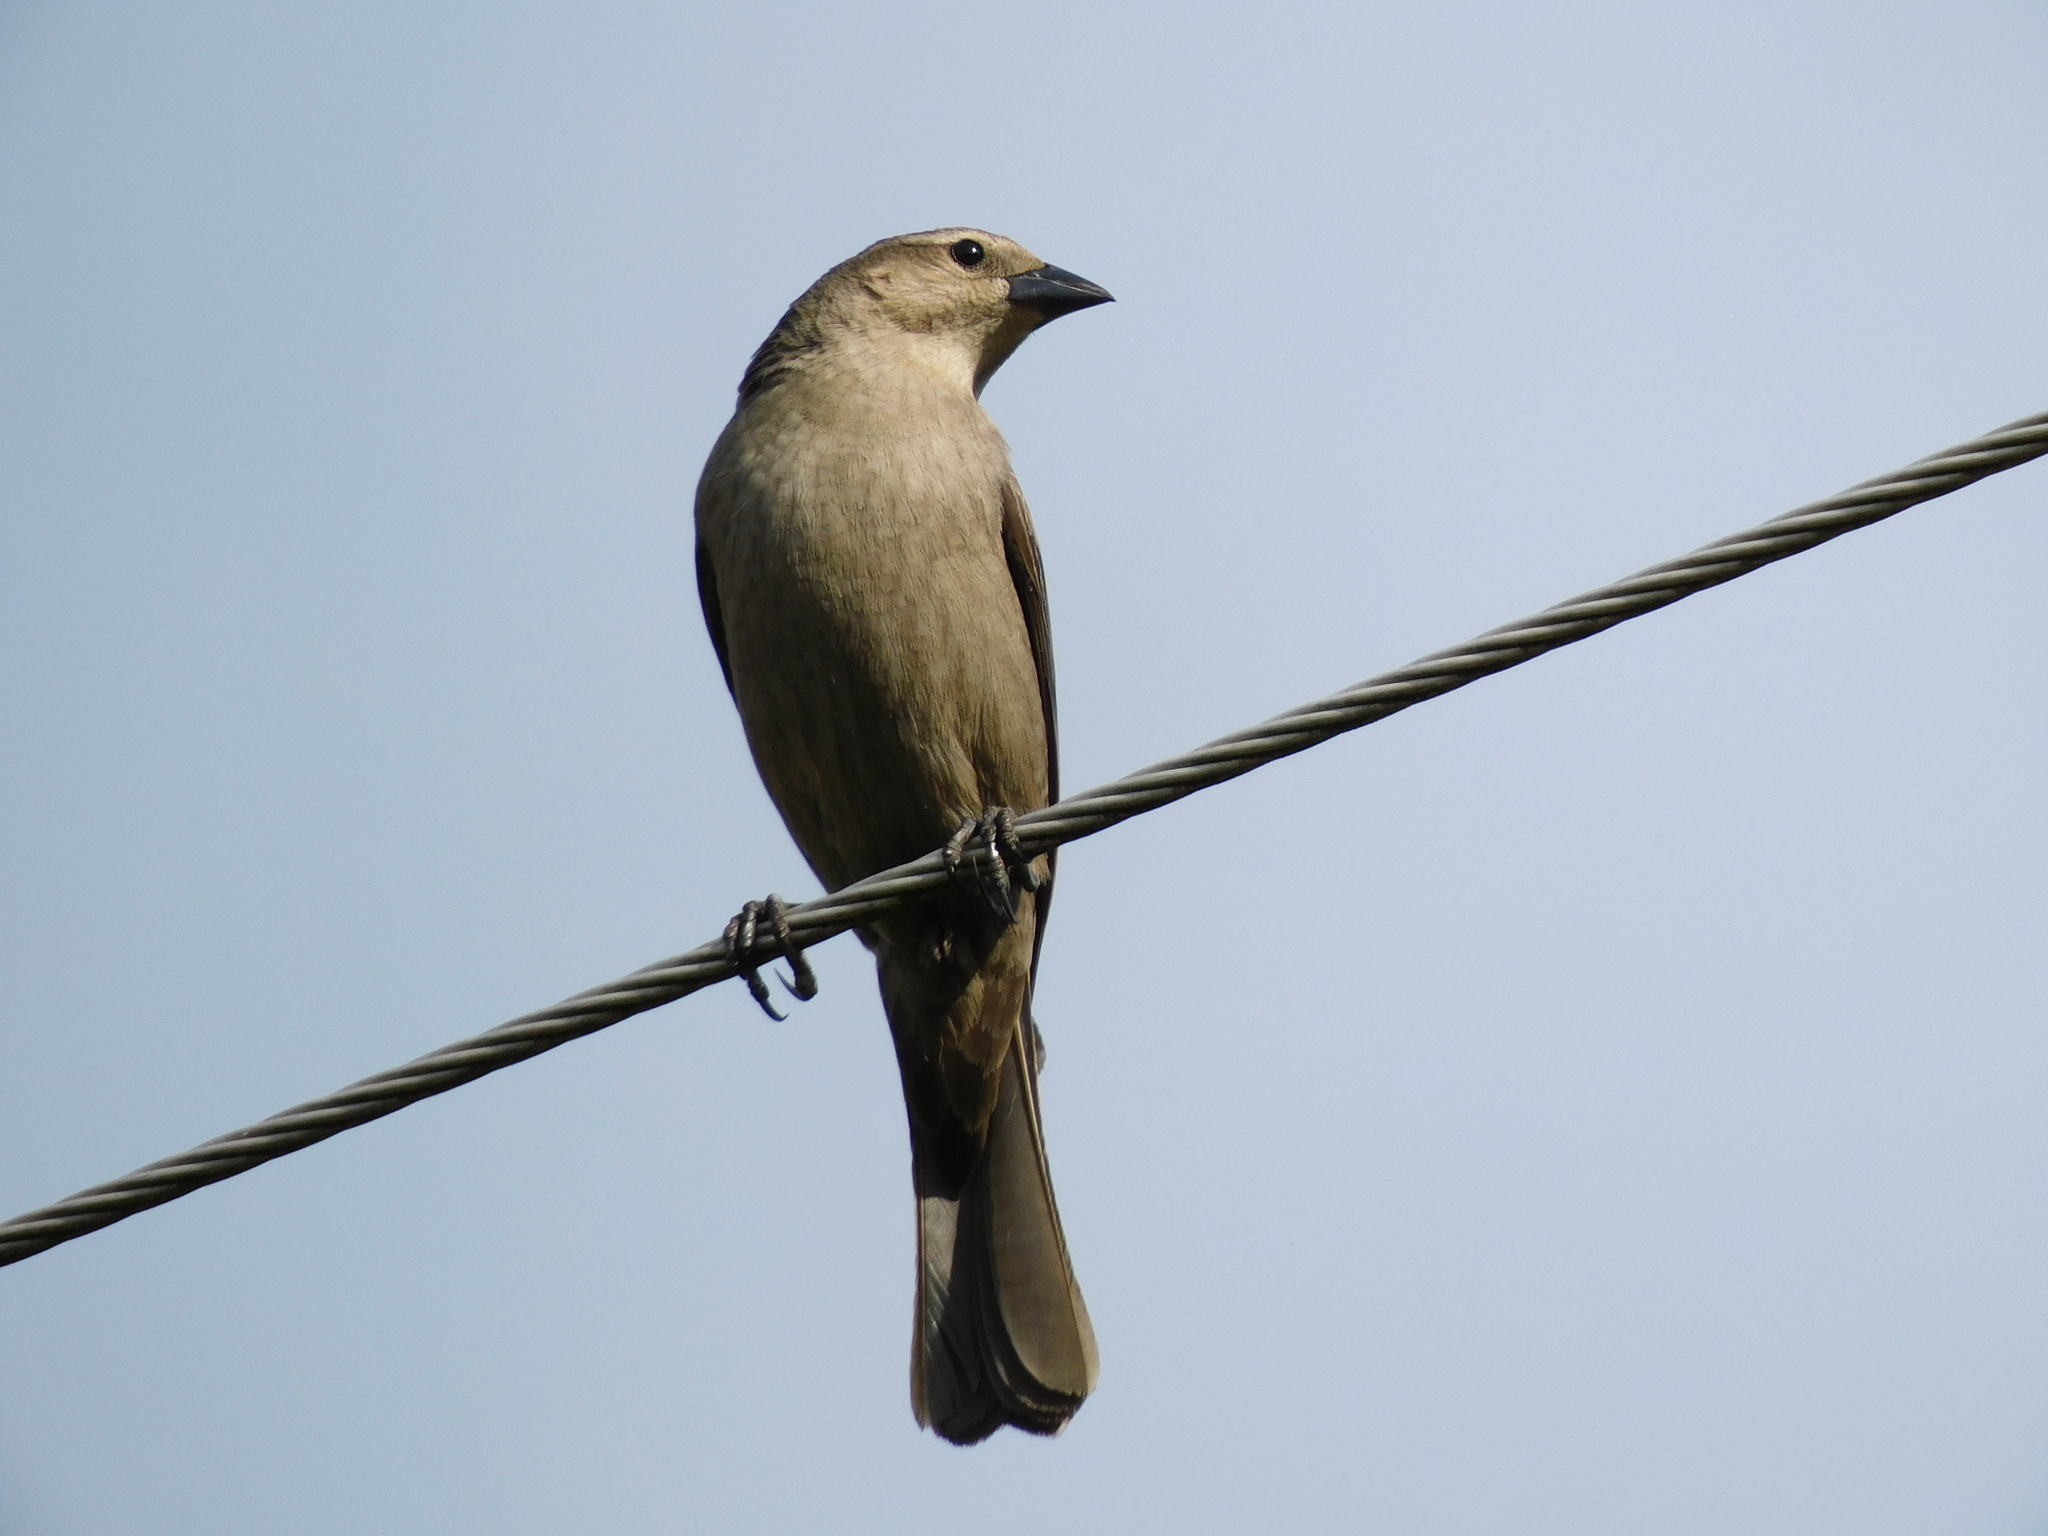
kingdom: Animalia
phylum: Chordata
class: Aves
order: Passeriformes
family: Icteridae
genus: Molothrus
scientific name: Molothrus bonariensis
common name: Shiny cowbird
